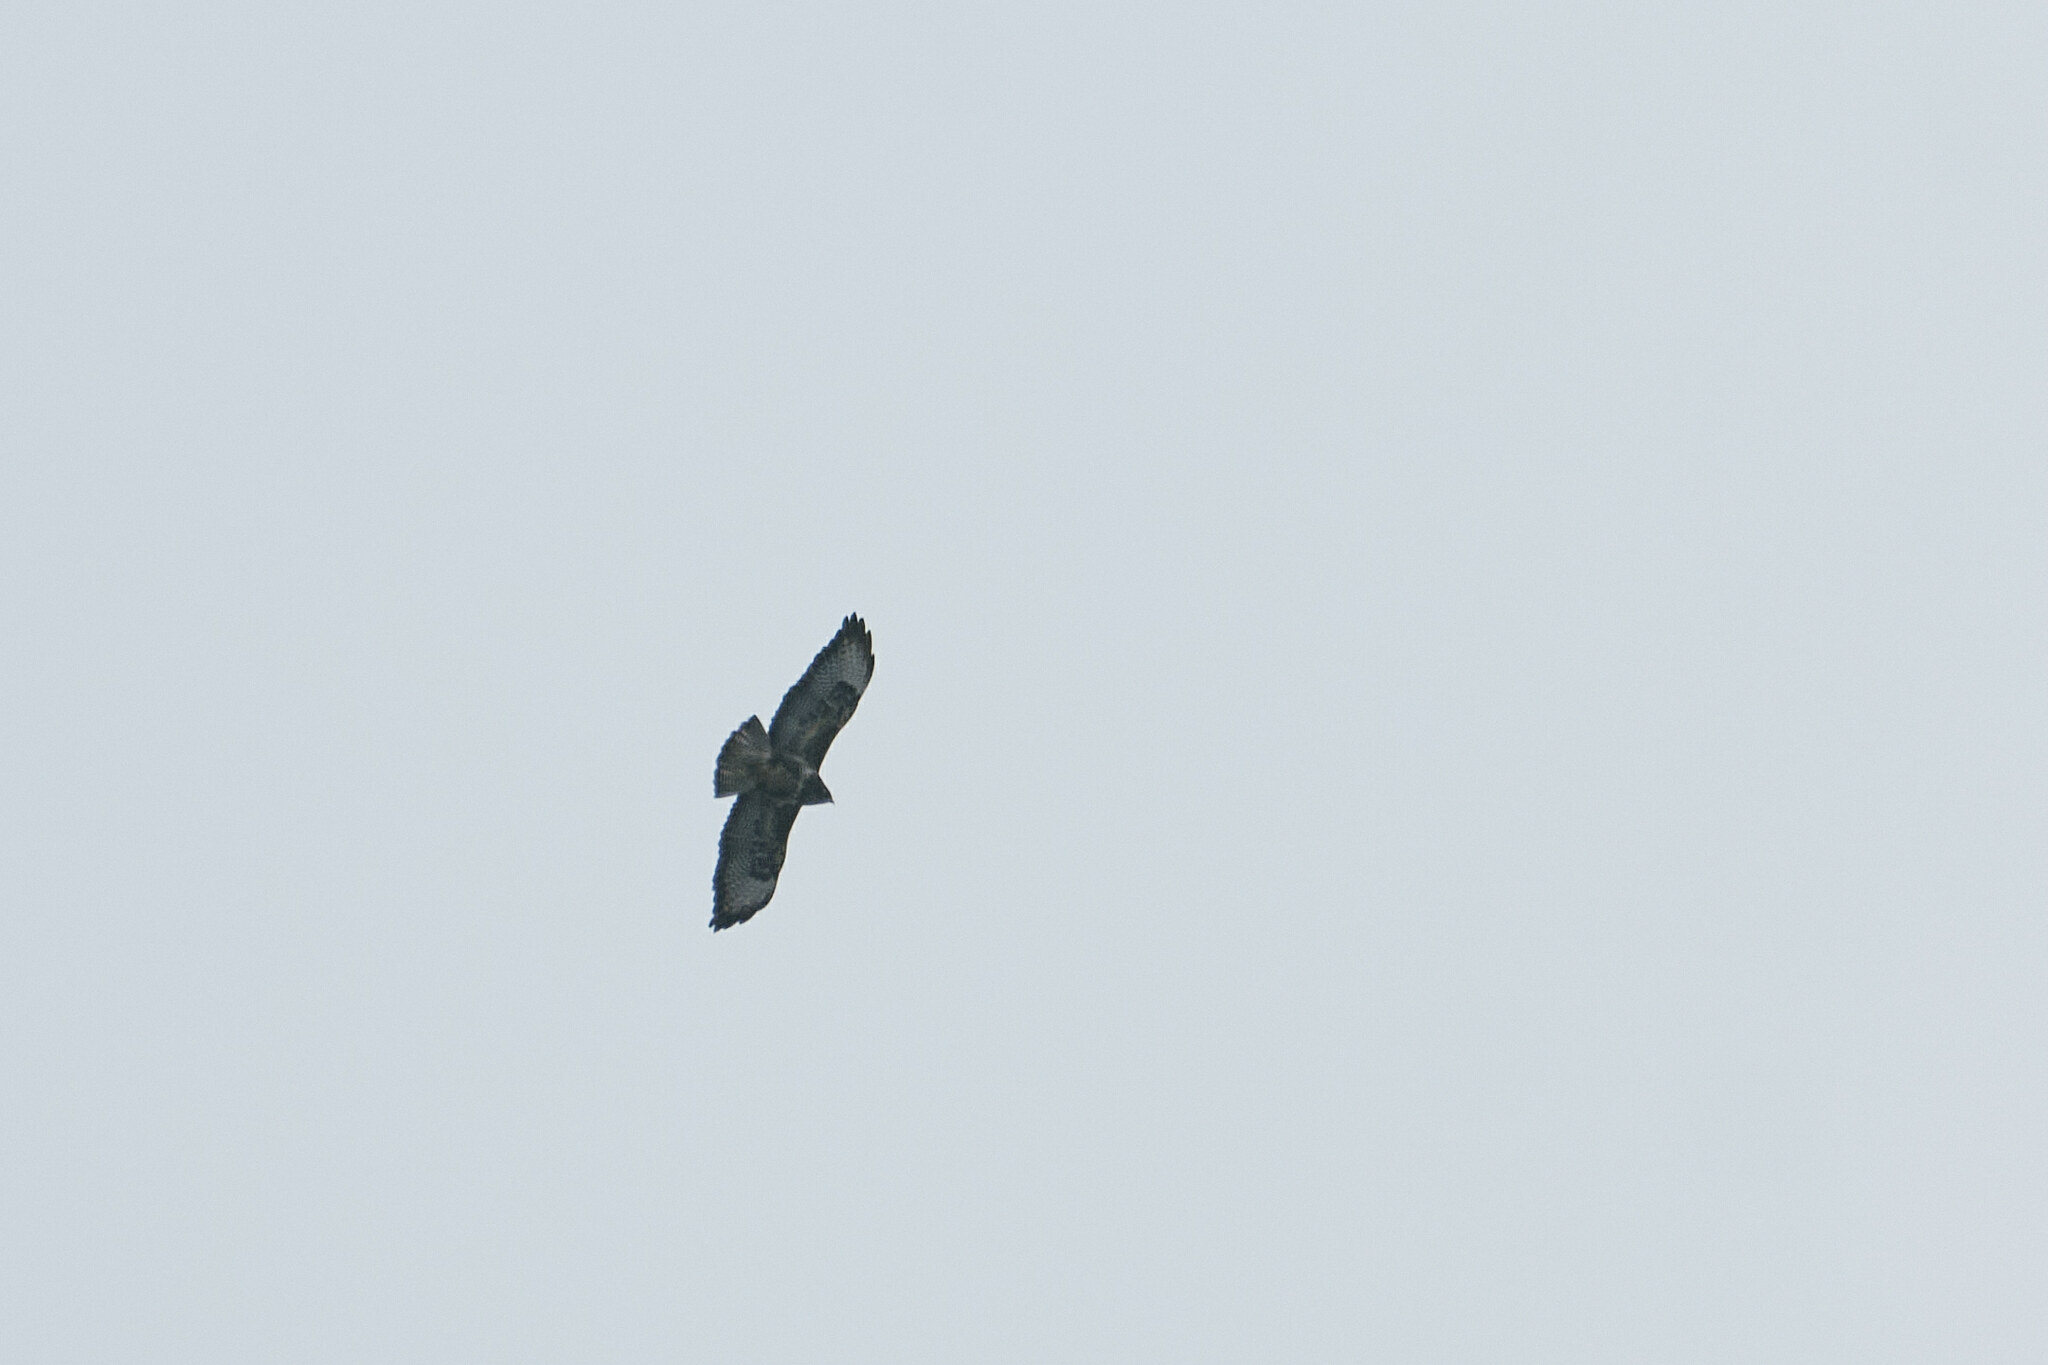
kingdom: Animalia
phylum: Chordata
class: Aves
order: Accipitriformes
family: Accipitridae
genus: Buteo
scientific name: Buteo buteo
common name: Common buzzard
